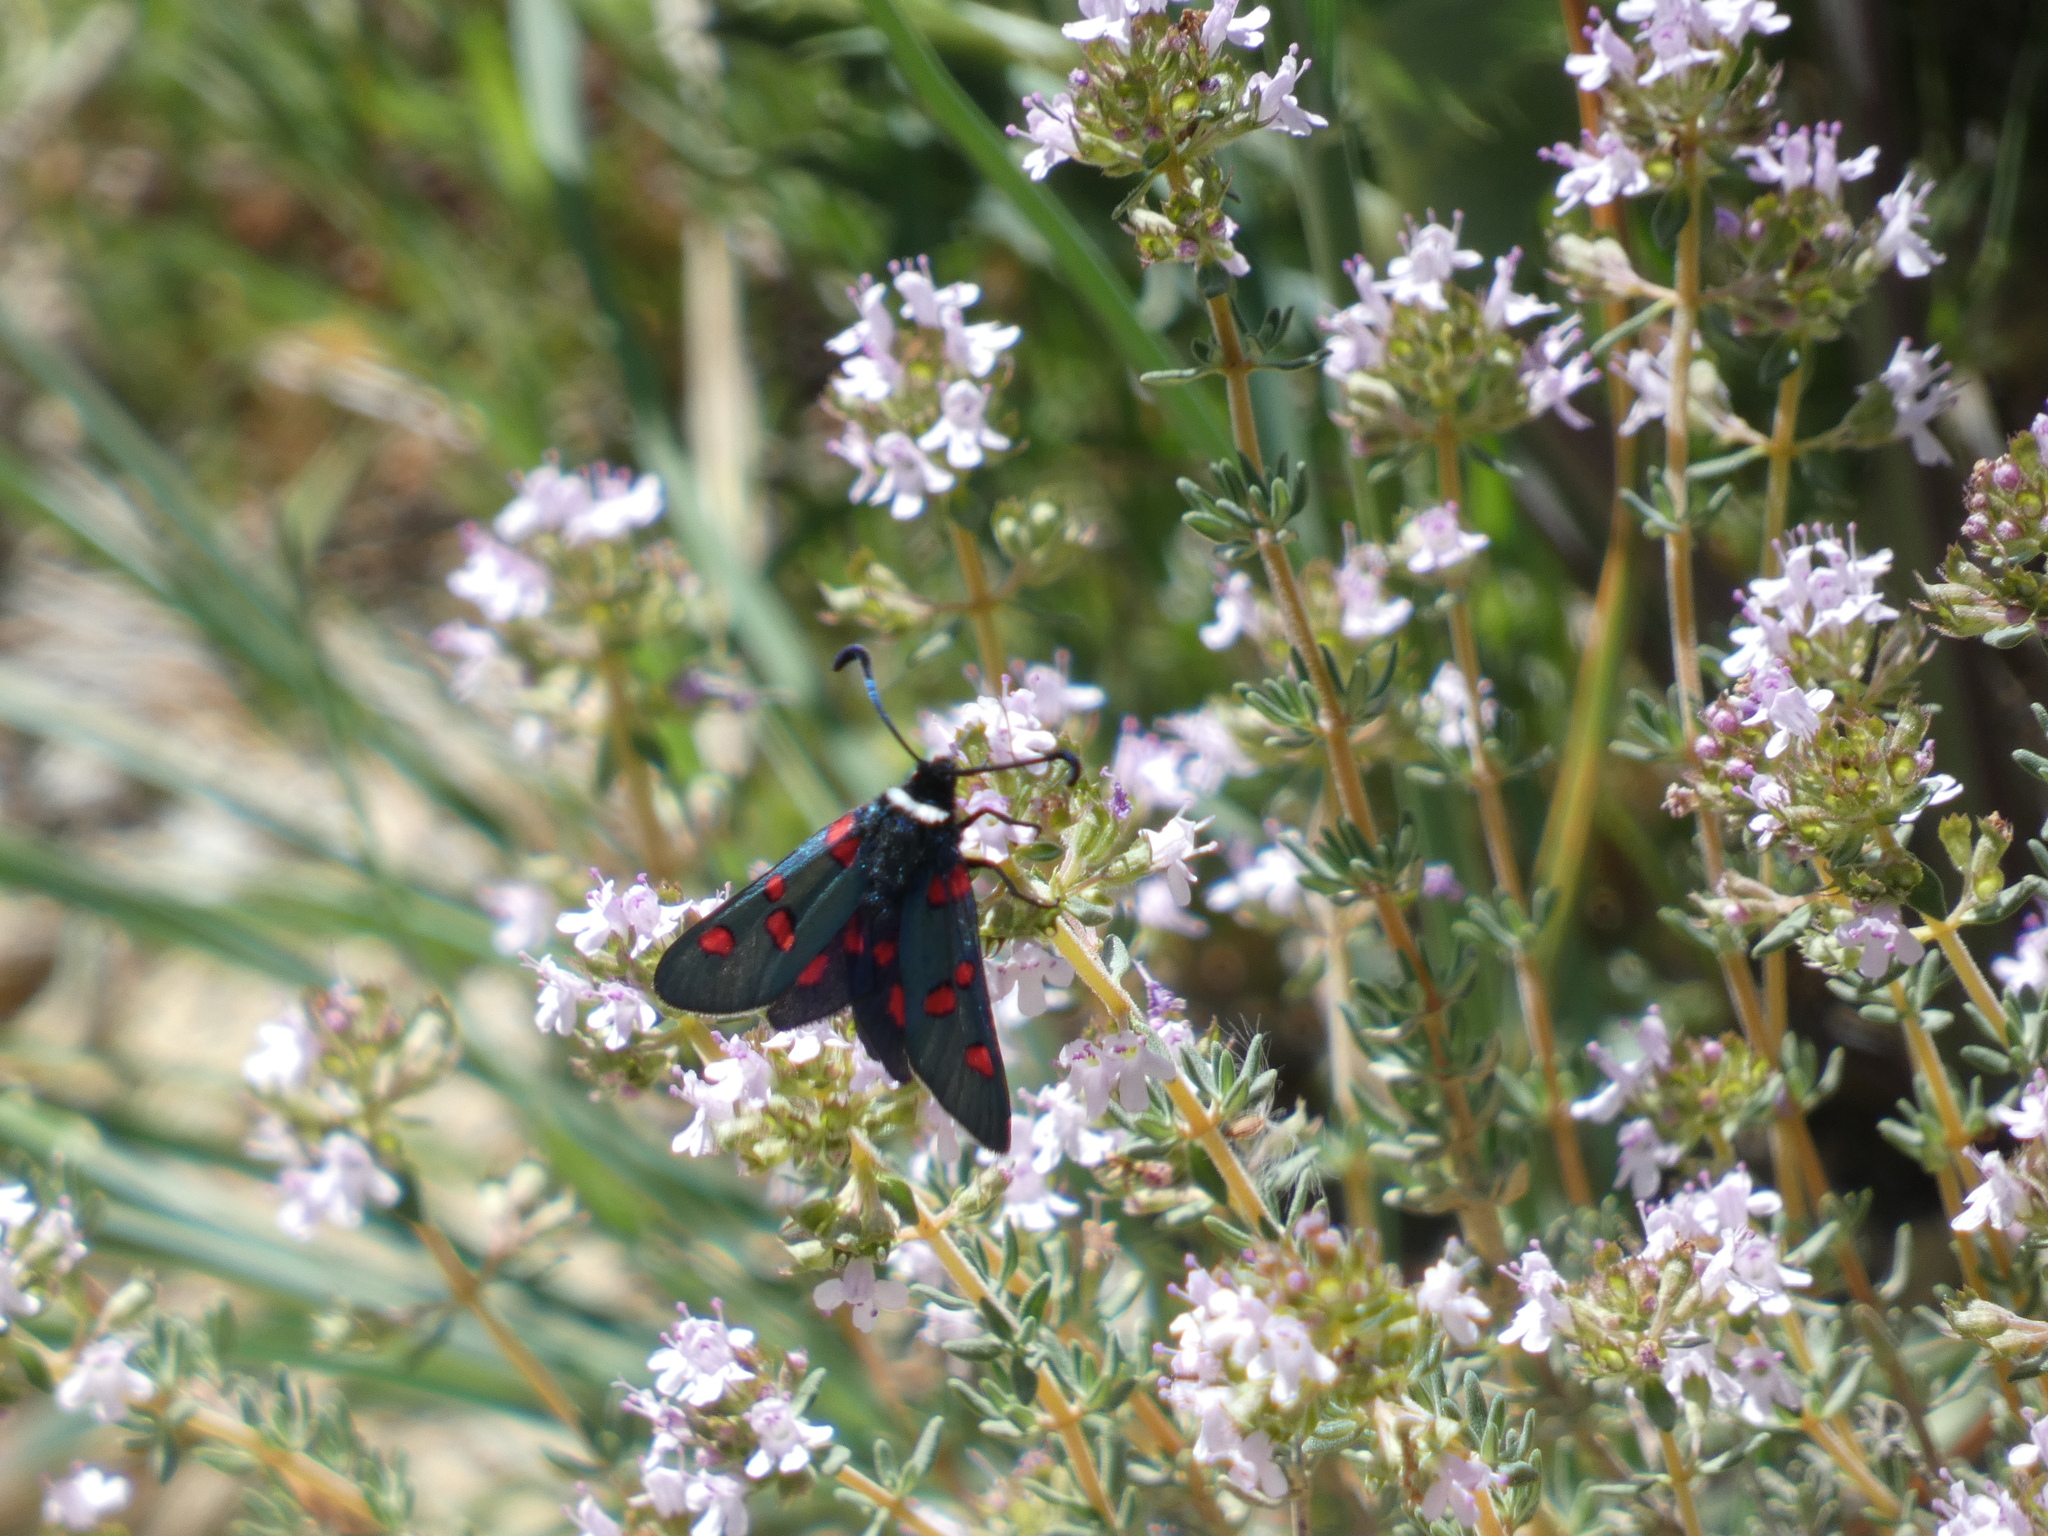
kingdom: Animalia
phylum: Arthropoda
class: Insecta
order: Lepidoptera
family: Zygaenidae
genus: Zygaena
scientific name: Zygaena lavandulae
